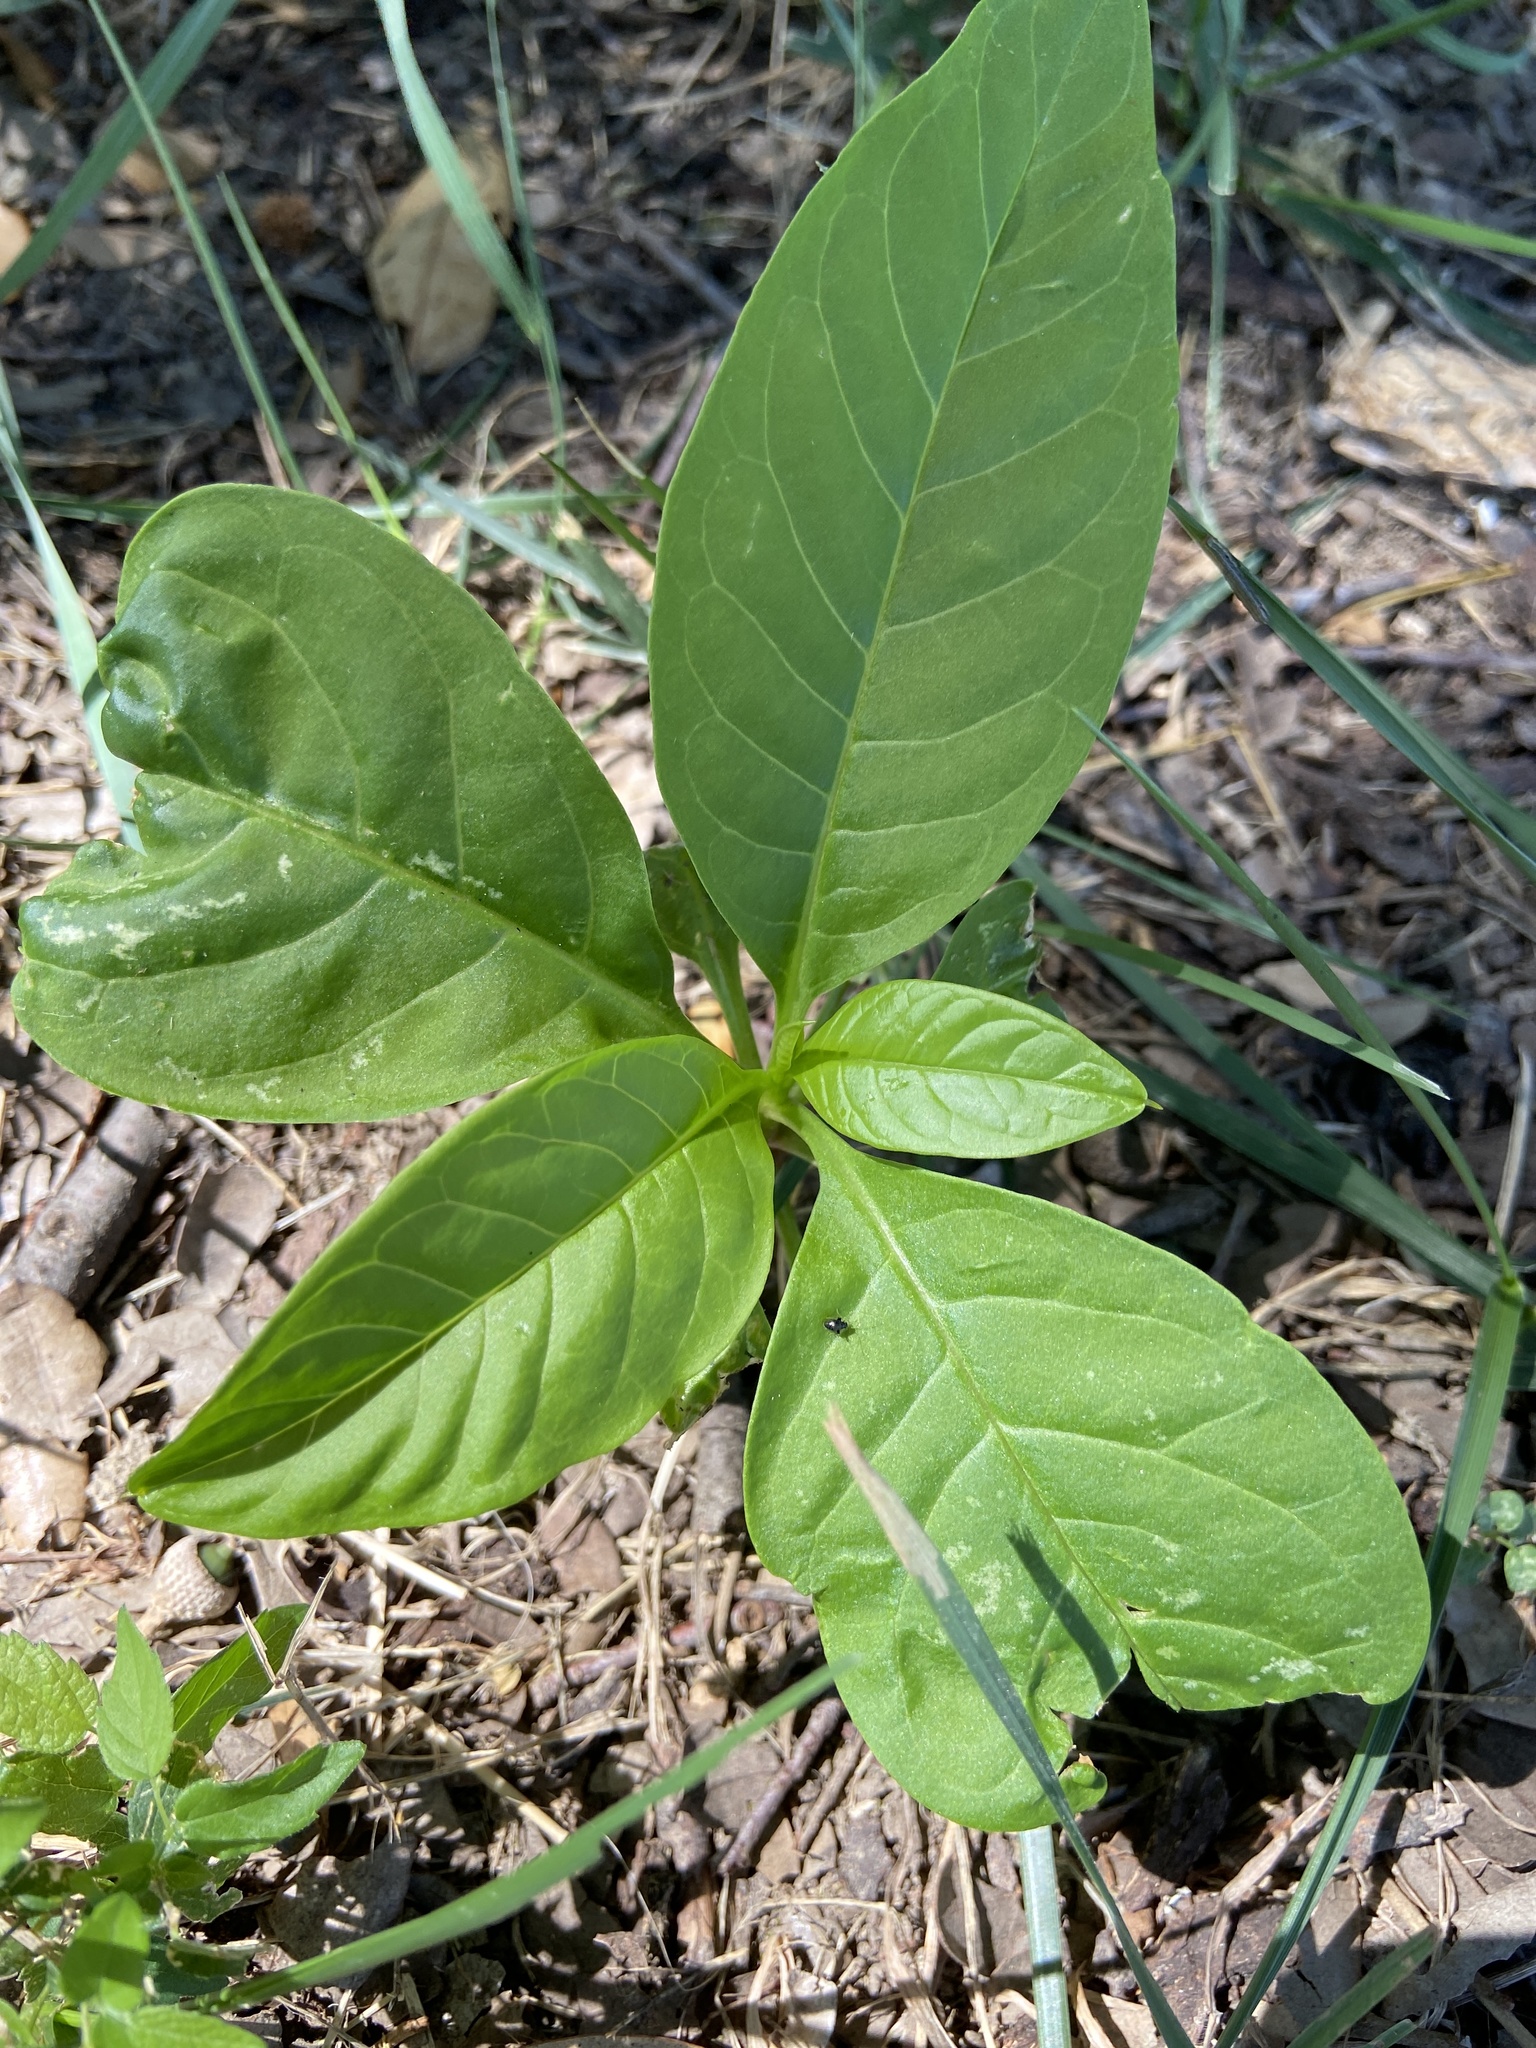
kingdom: Plantae
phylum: Tracheophyta
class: Magnoliopsida
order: Caryophyllales
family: Phytolaccaceae
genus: Phytolacca
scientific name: Phytolacca americana
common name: American pokeweed
